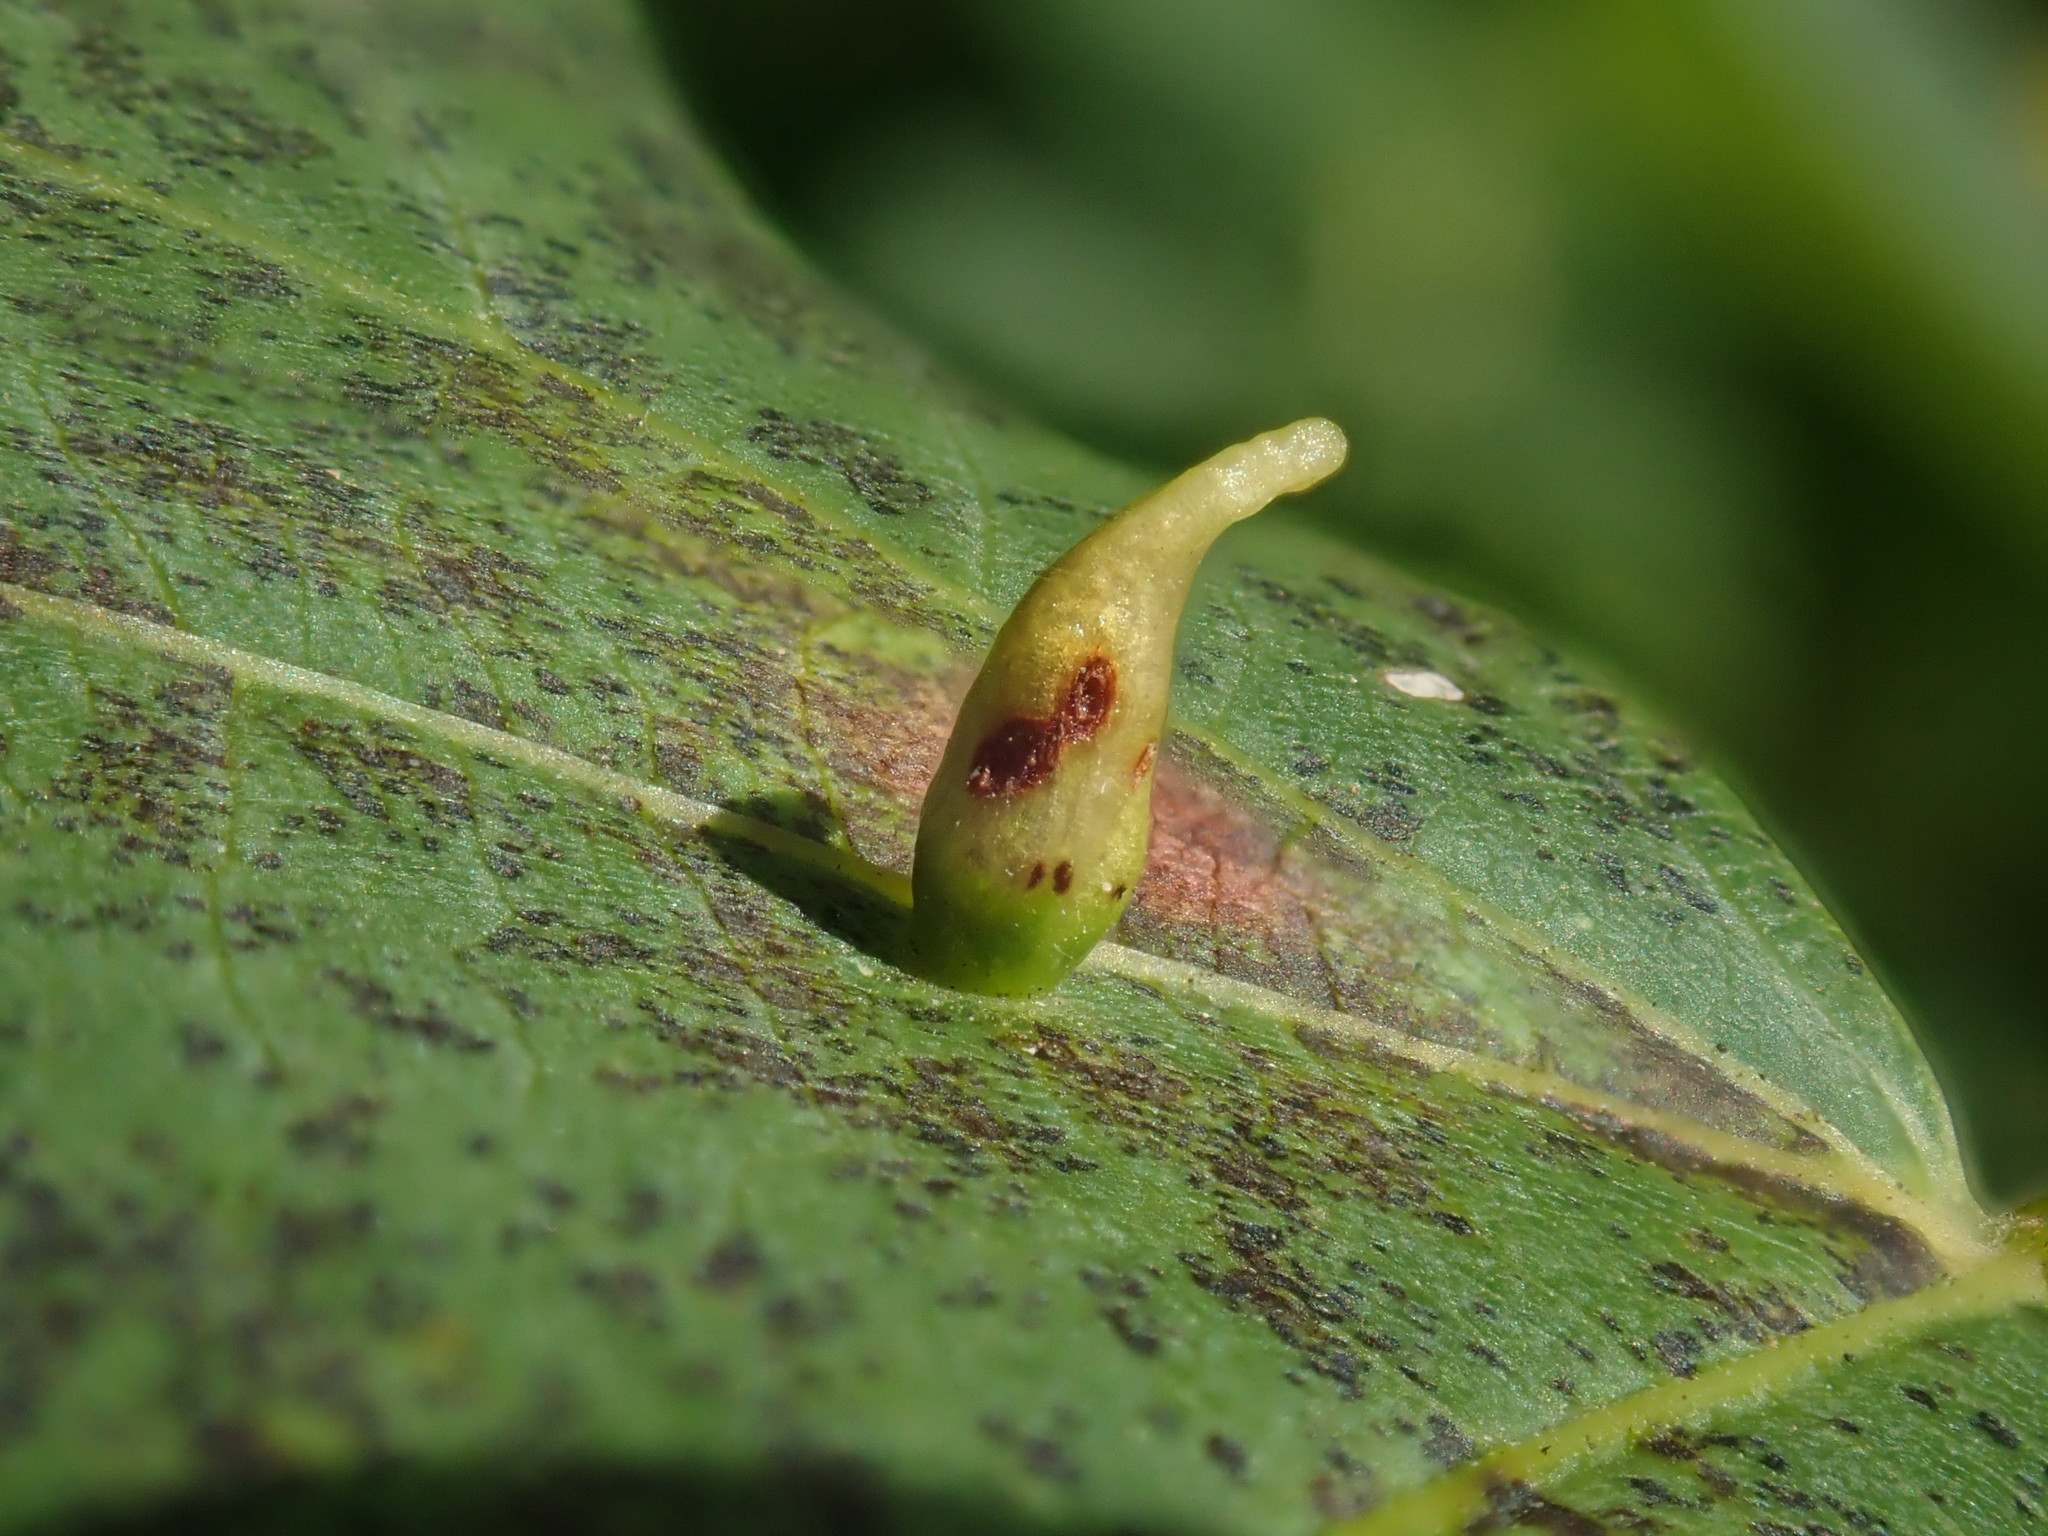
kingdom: Animalia
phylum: Arthropoda
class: Arachnida
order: Trombidiformes
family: Eriophyidae
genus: Eriophyes
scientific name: Eriophyes tiliae
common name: Red nail gall mite
